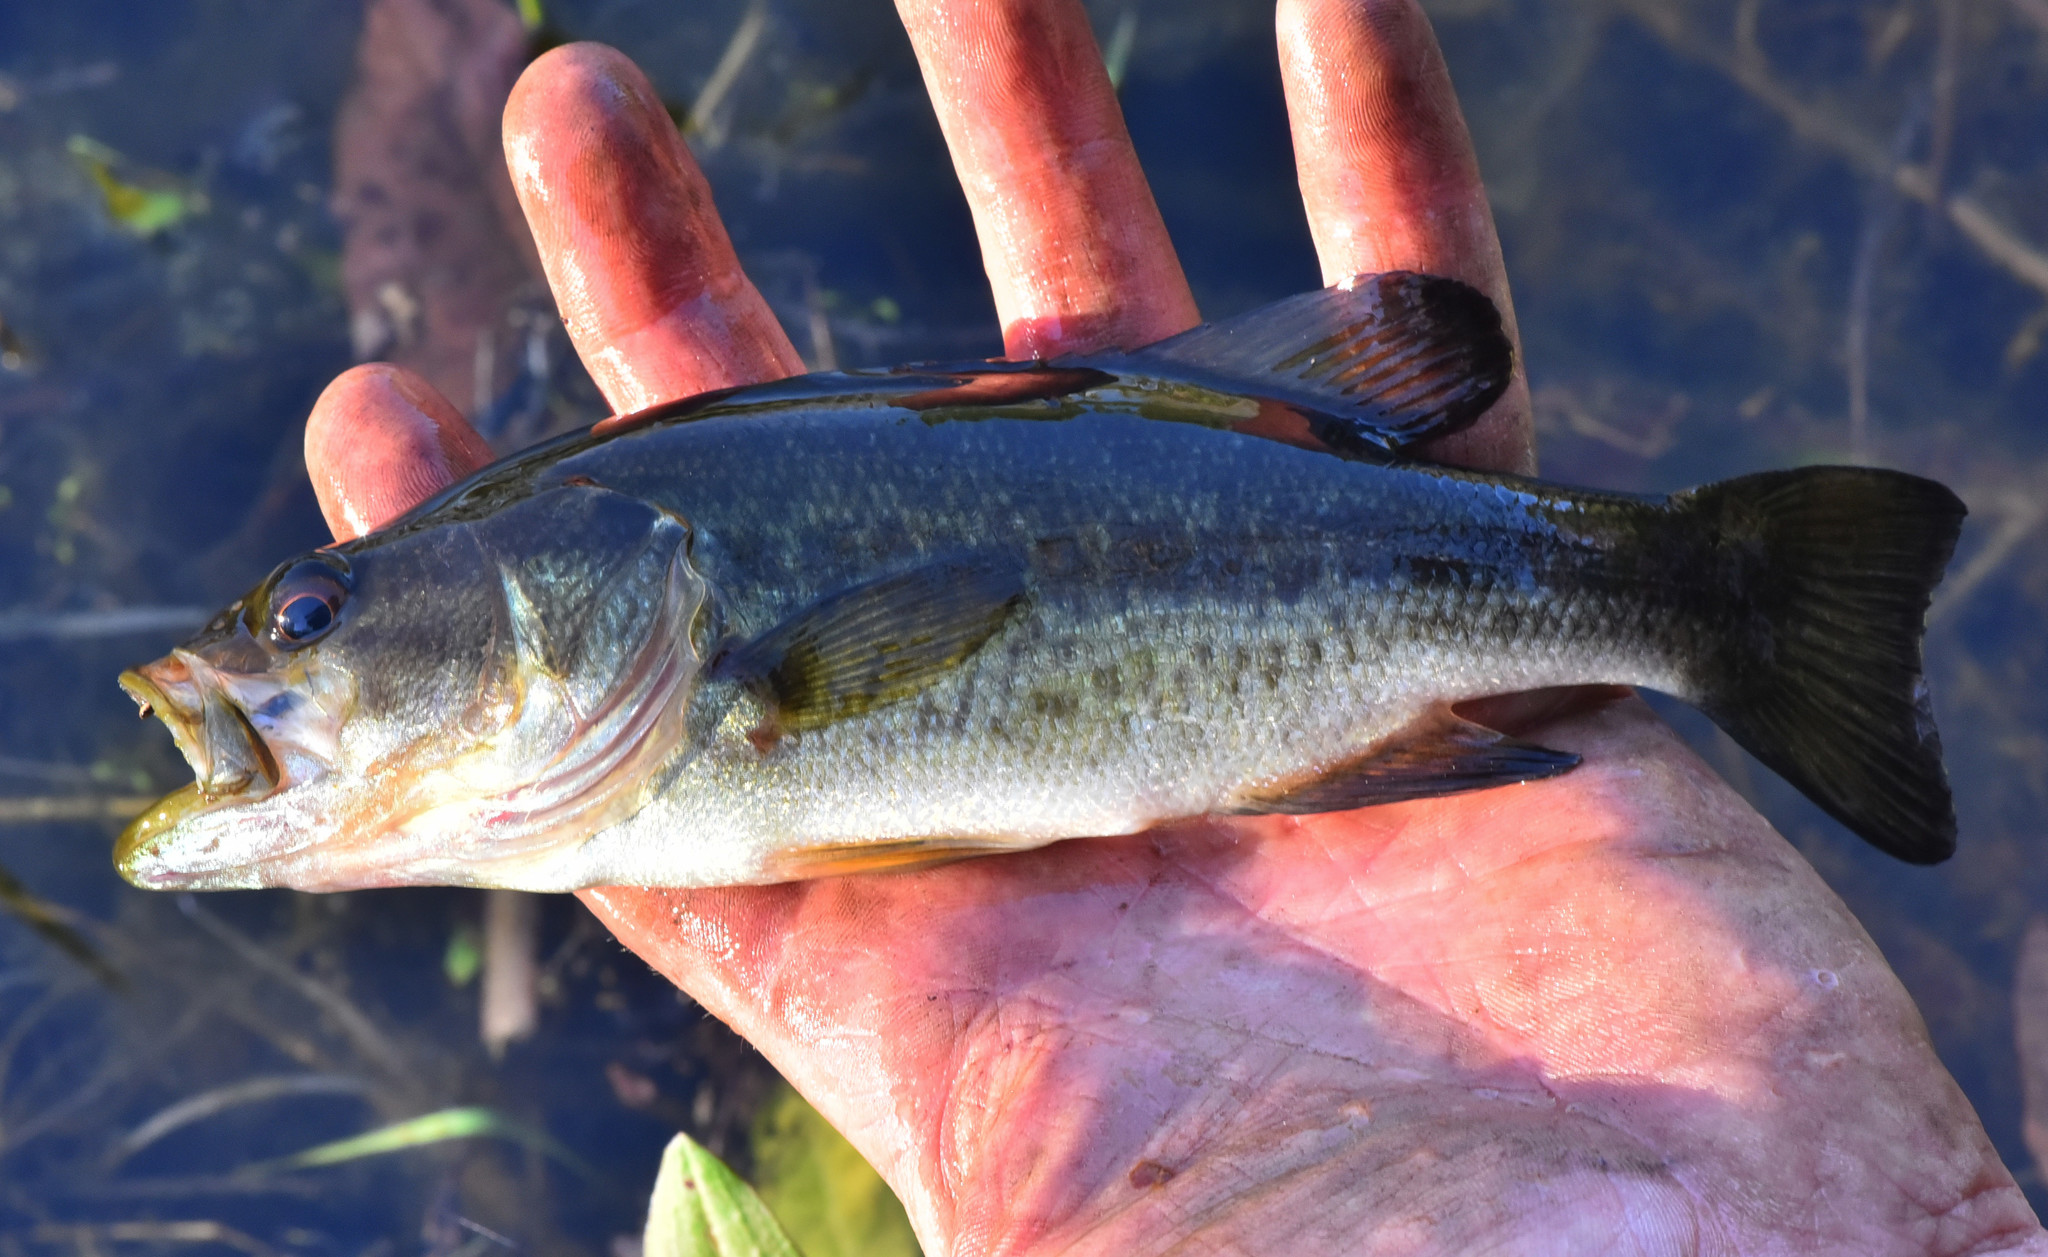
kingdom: Animalia
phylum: Chordata
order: Perciformes
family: Centrarchidae
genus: Micropterus
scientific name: Micropterus
